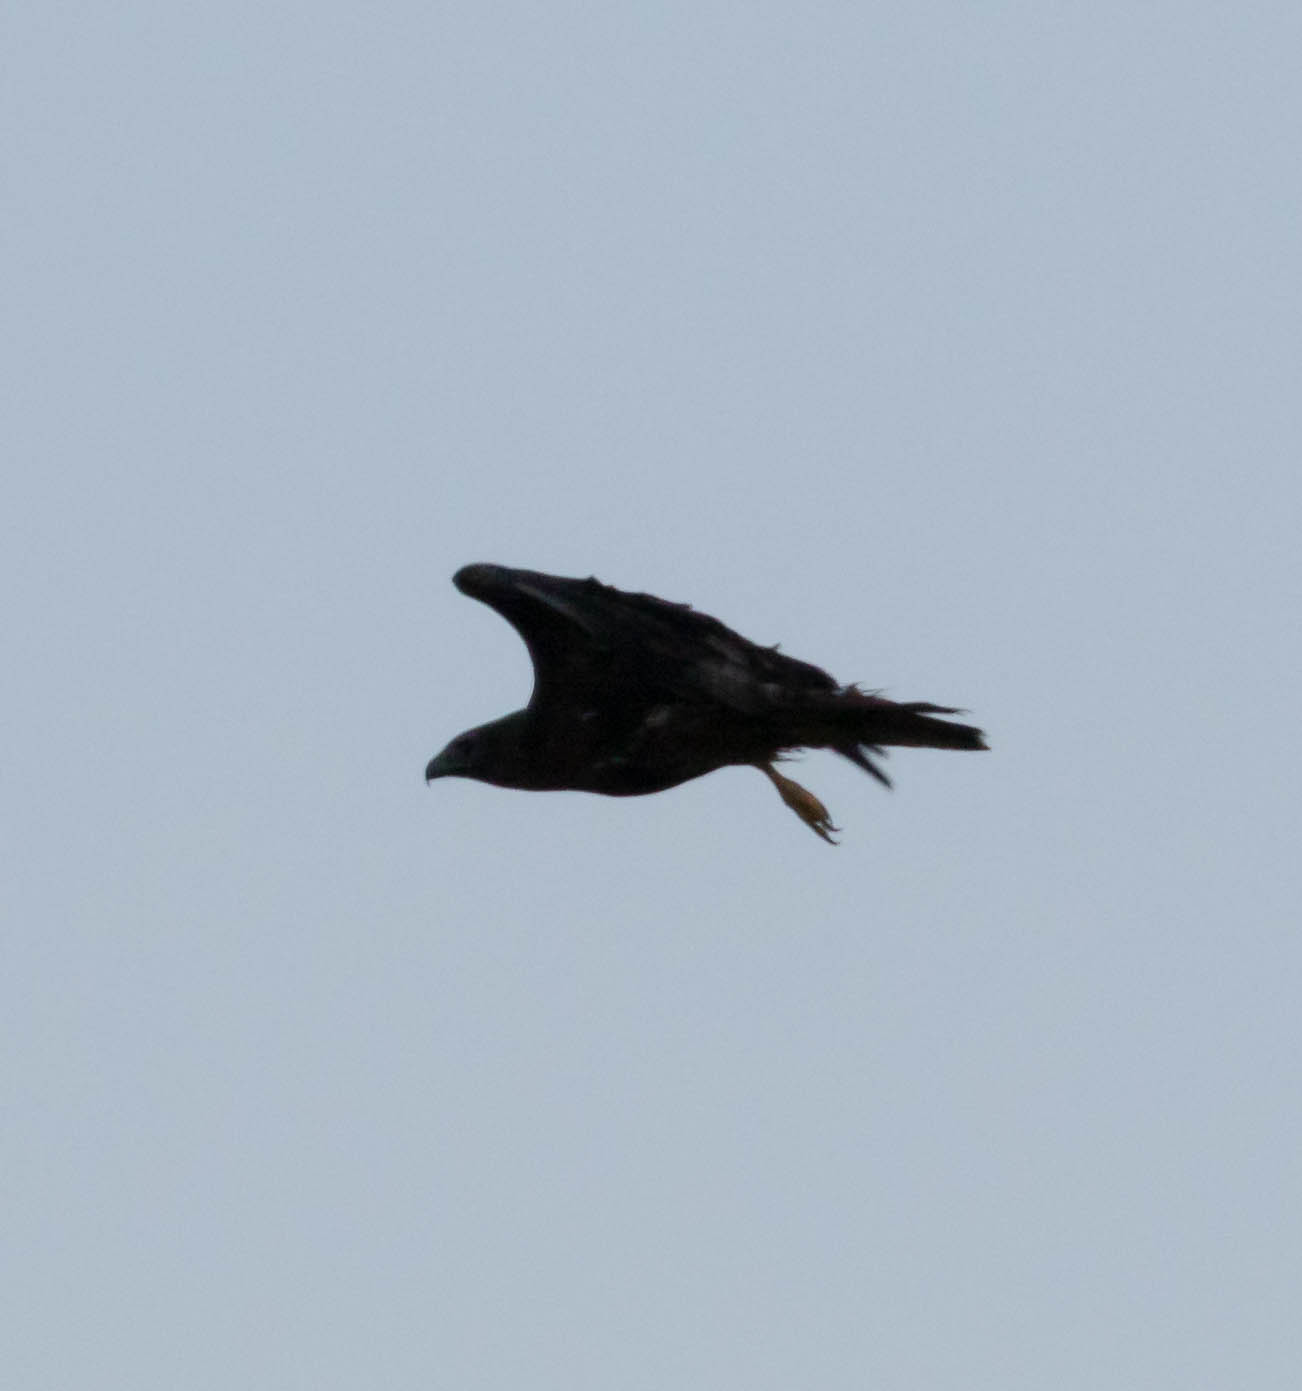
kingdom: Animalia
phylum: Chordata
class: Aves
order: Accipitriformes
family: Accipitridae
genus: Buteo
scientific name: Buteo jamaicensis
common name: Red-tailed hawk
